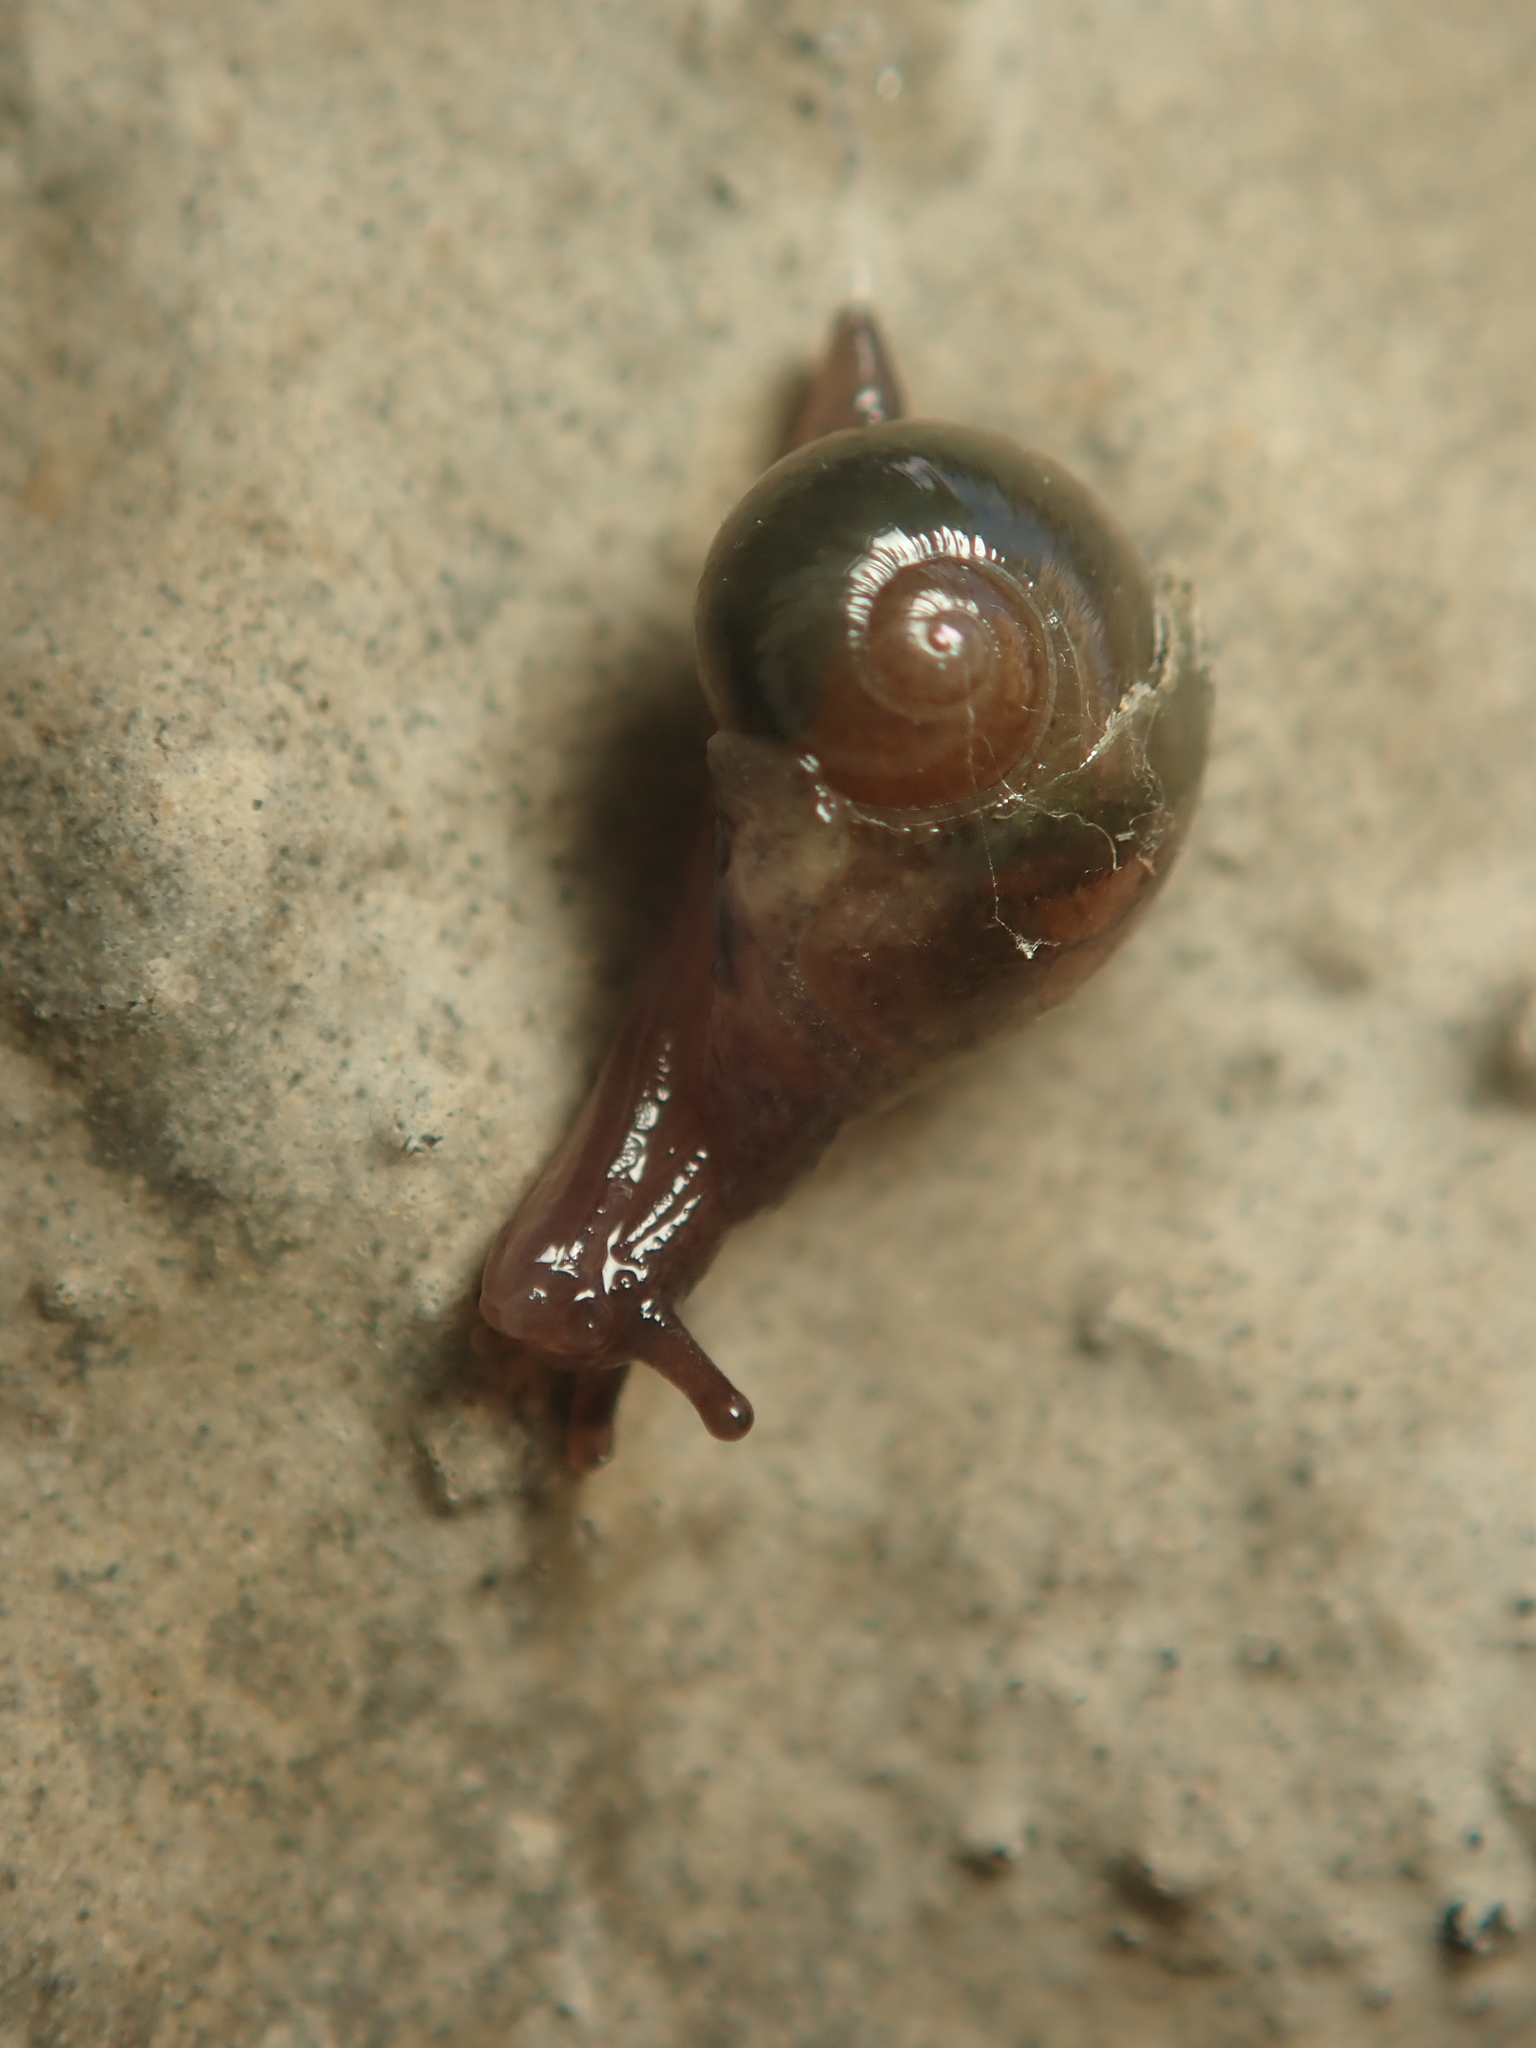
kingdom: Animalia
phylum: Mollusca
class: Gastropoda
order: Stylommatophora
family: Vitrinidae
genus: Vitrina
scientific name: Vitrina pellucida
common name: Pellucid glass snail
